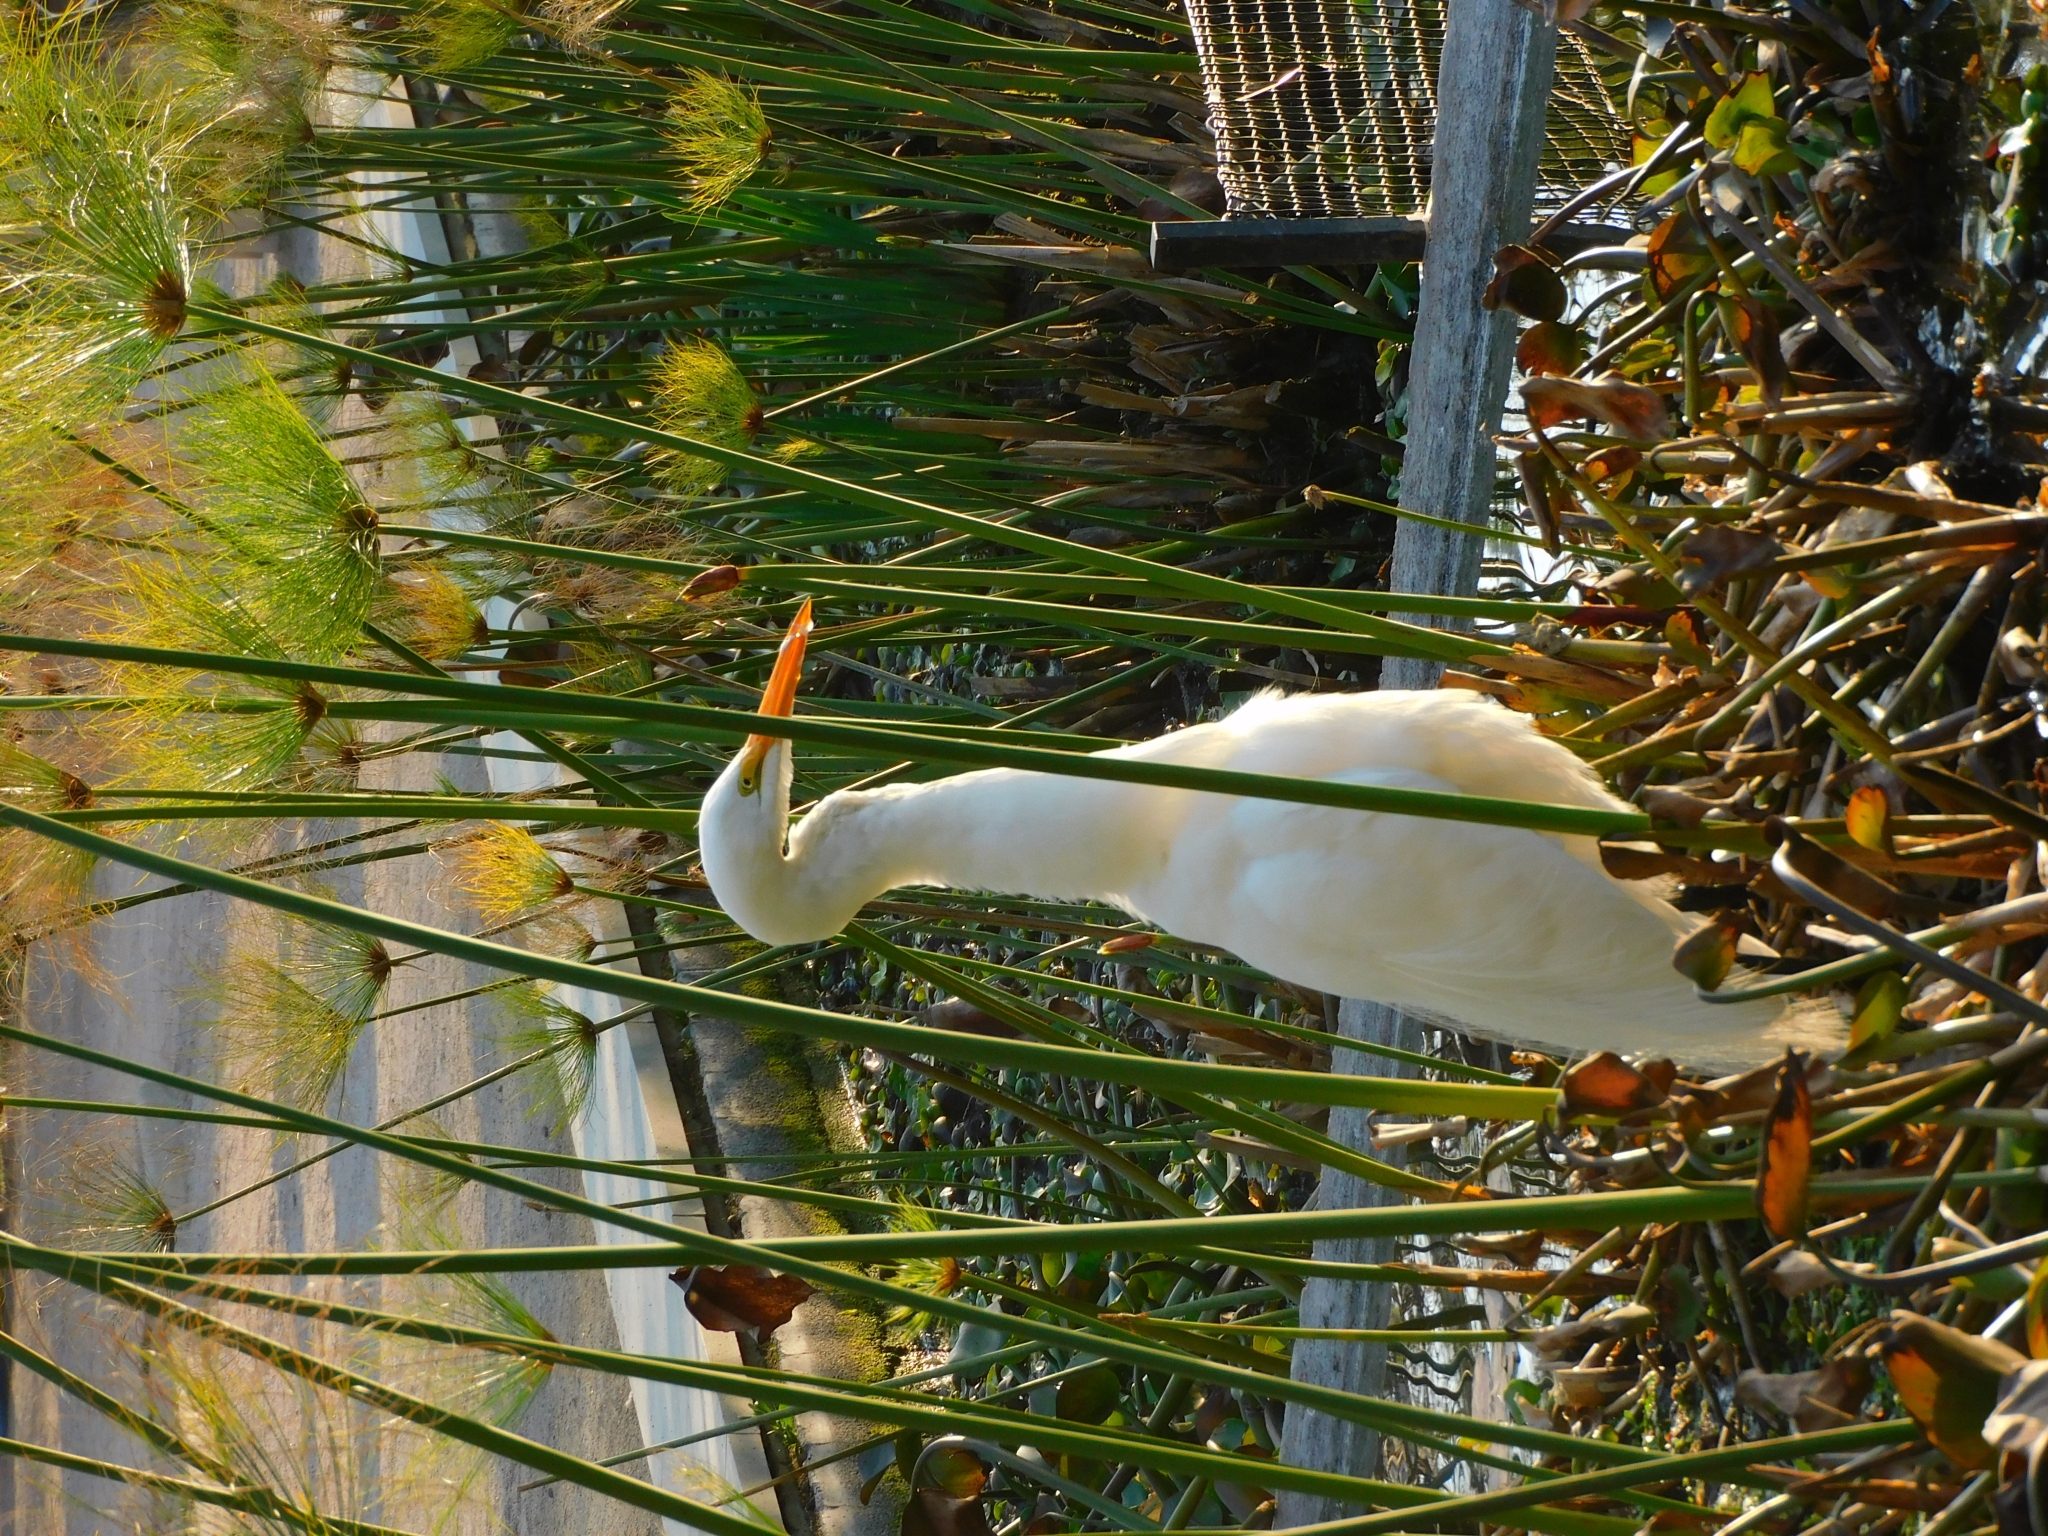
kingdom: Animalia
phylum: Chordata
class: Aves
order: Pelecaniformes
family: Ardeidae
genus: Ardea
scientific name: Ardea alba
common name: Great egret
